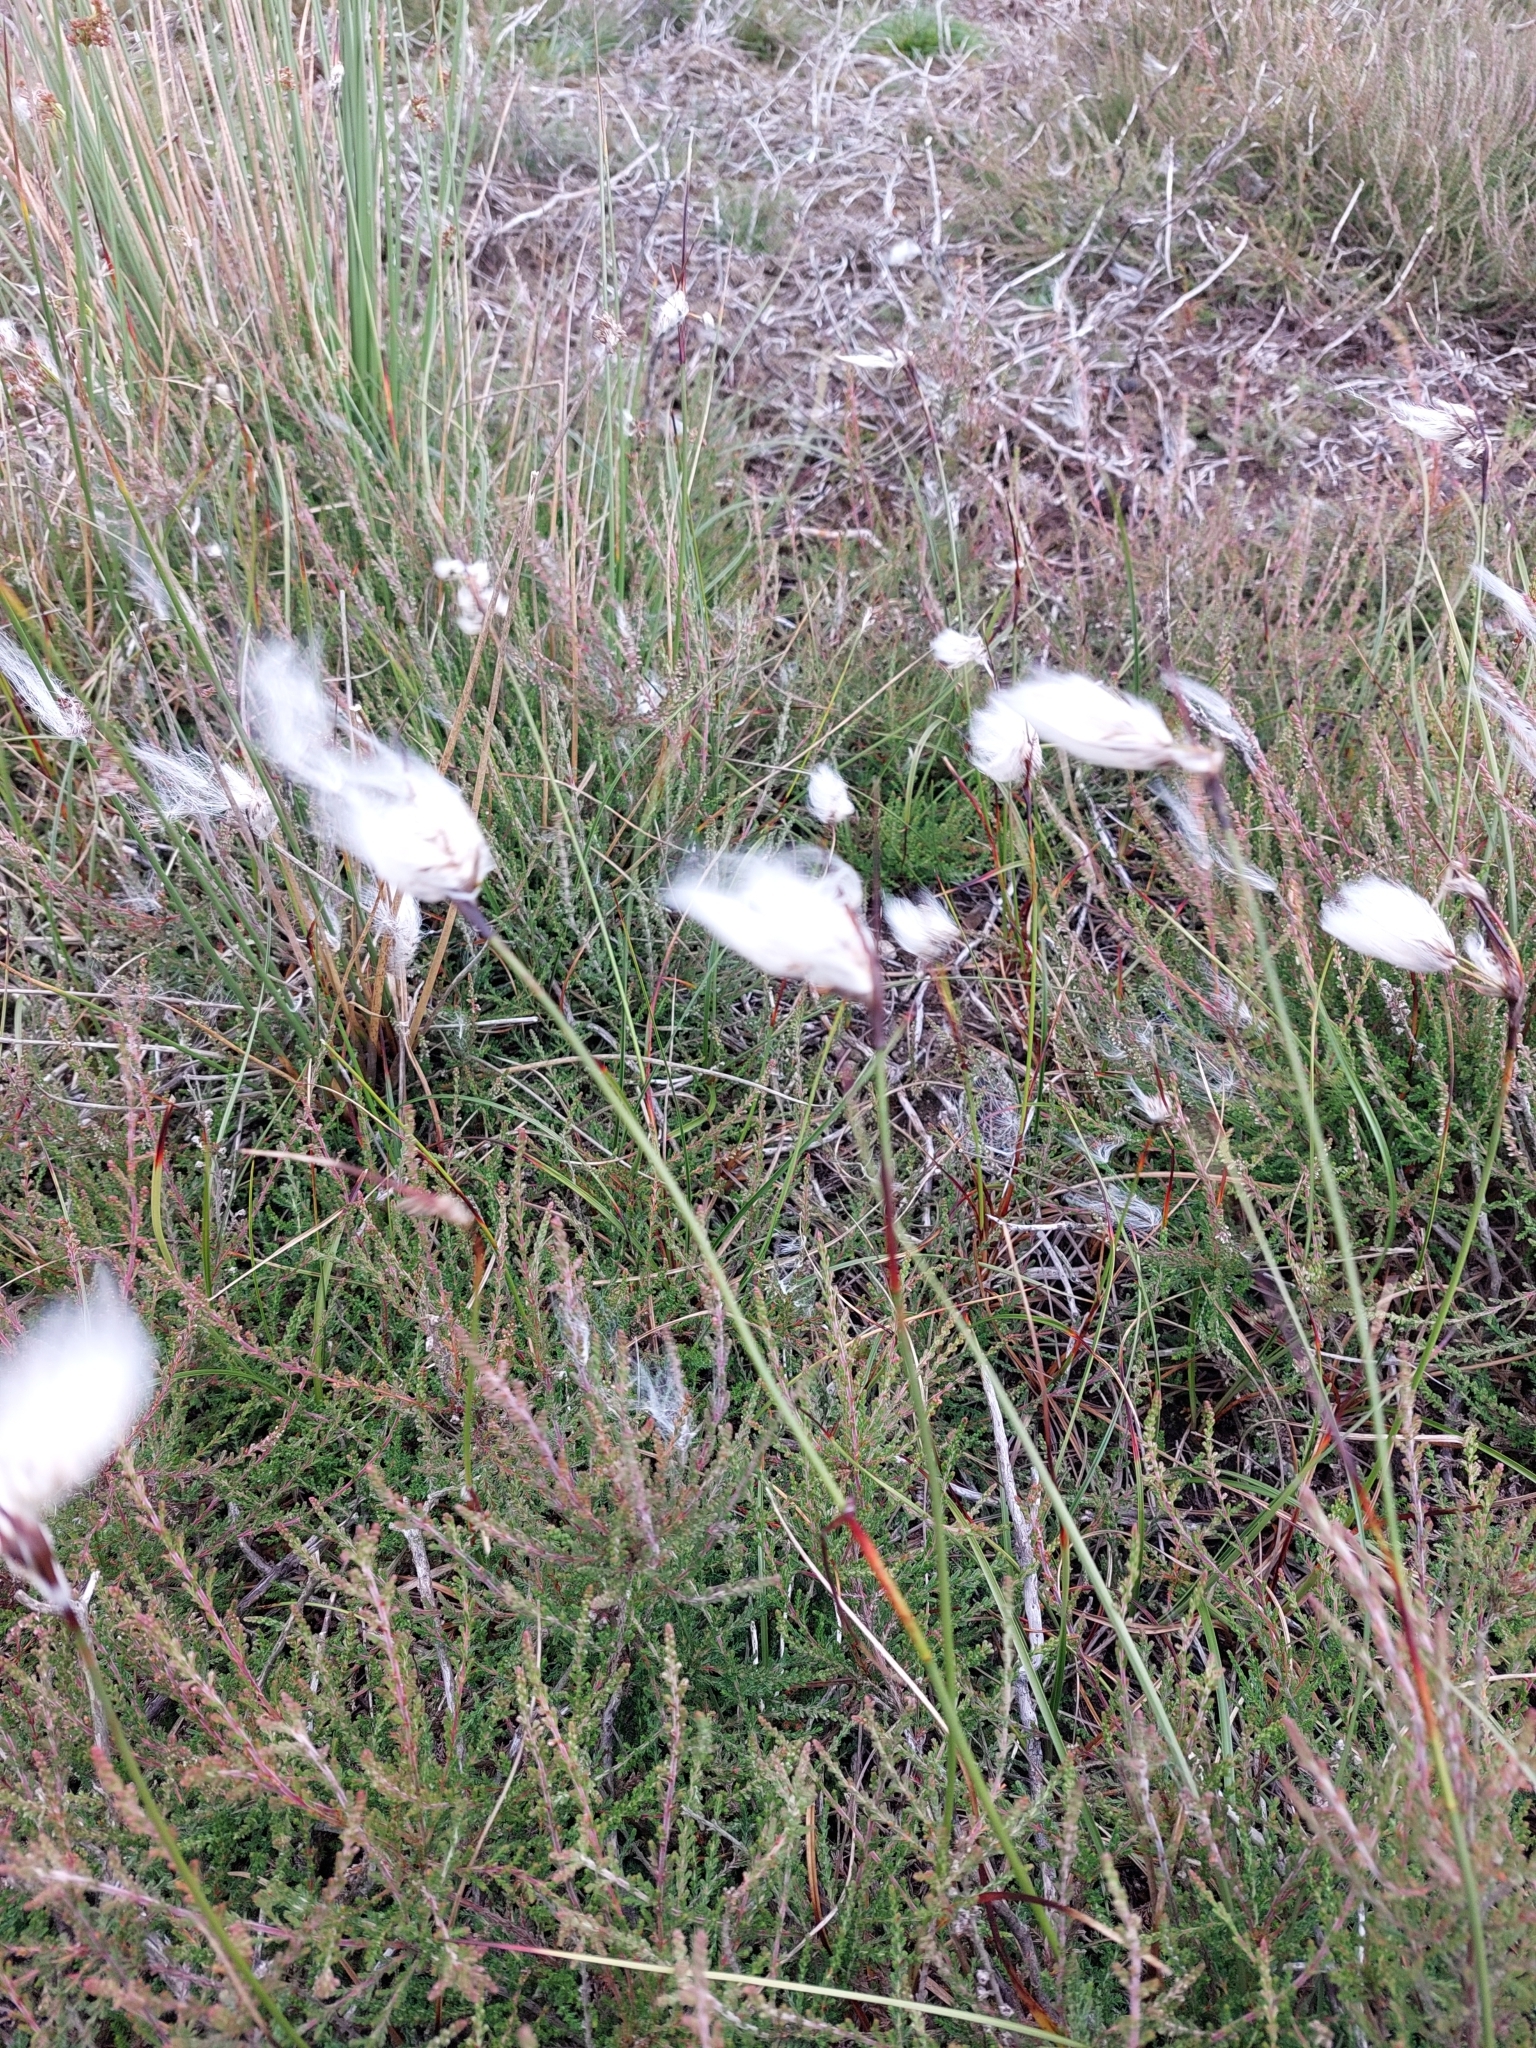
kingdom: Plantae
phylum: Tracheophyta
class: Liliopsida
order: Poales
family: Cyperaceae
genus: Eriophorum
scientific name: Eriophorum angustifolium
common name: Common cottongrass
